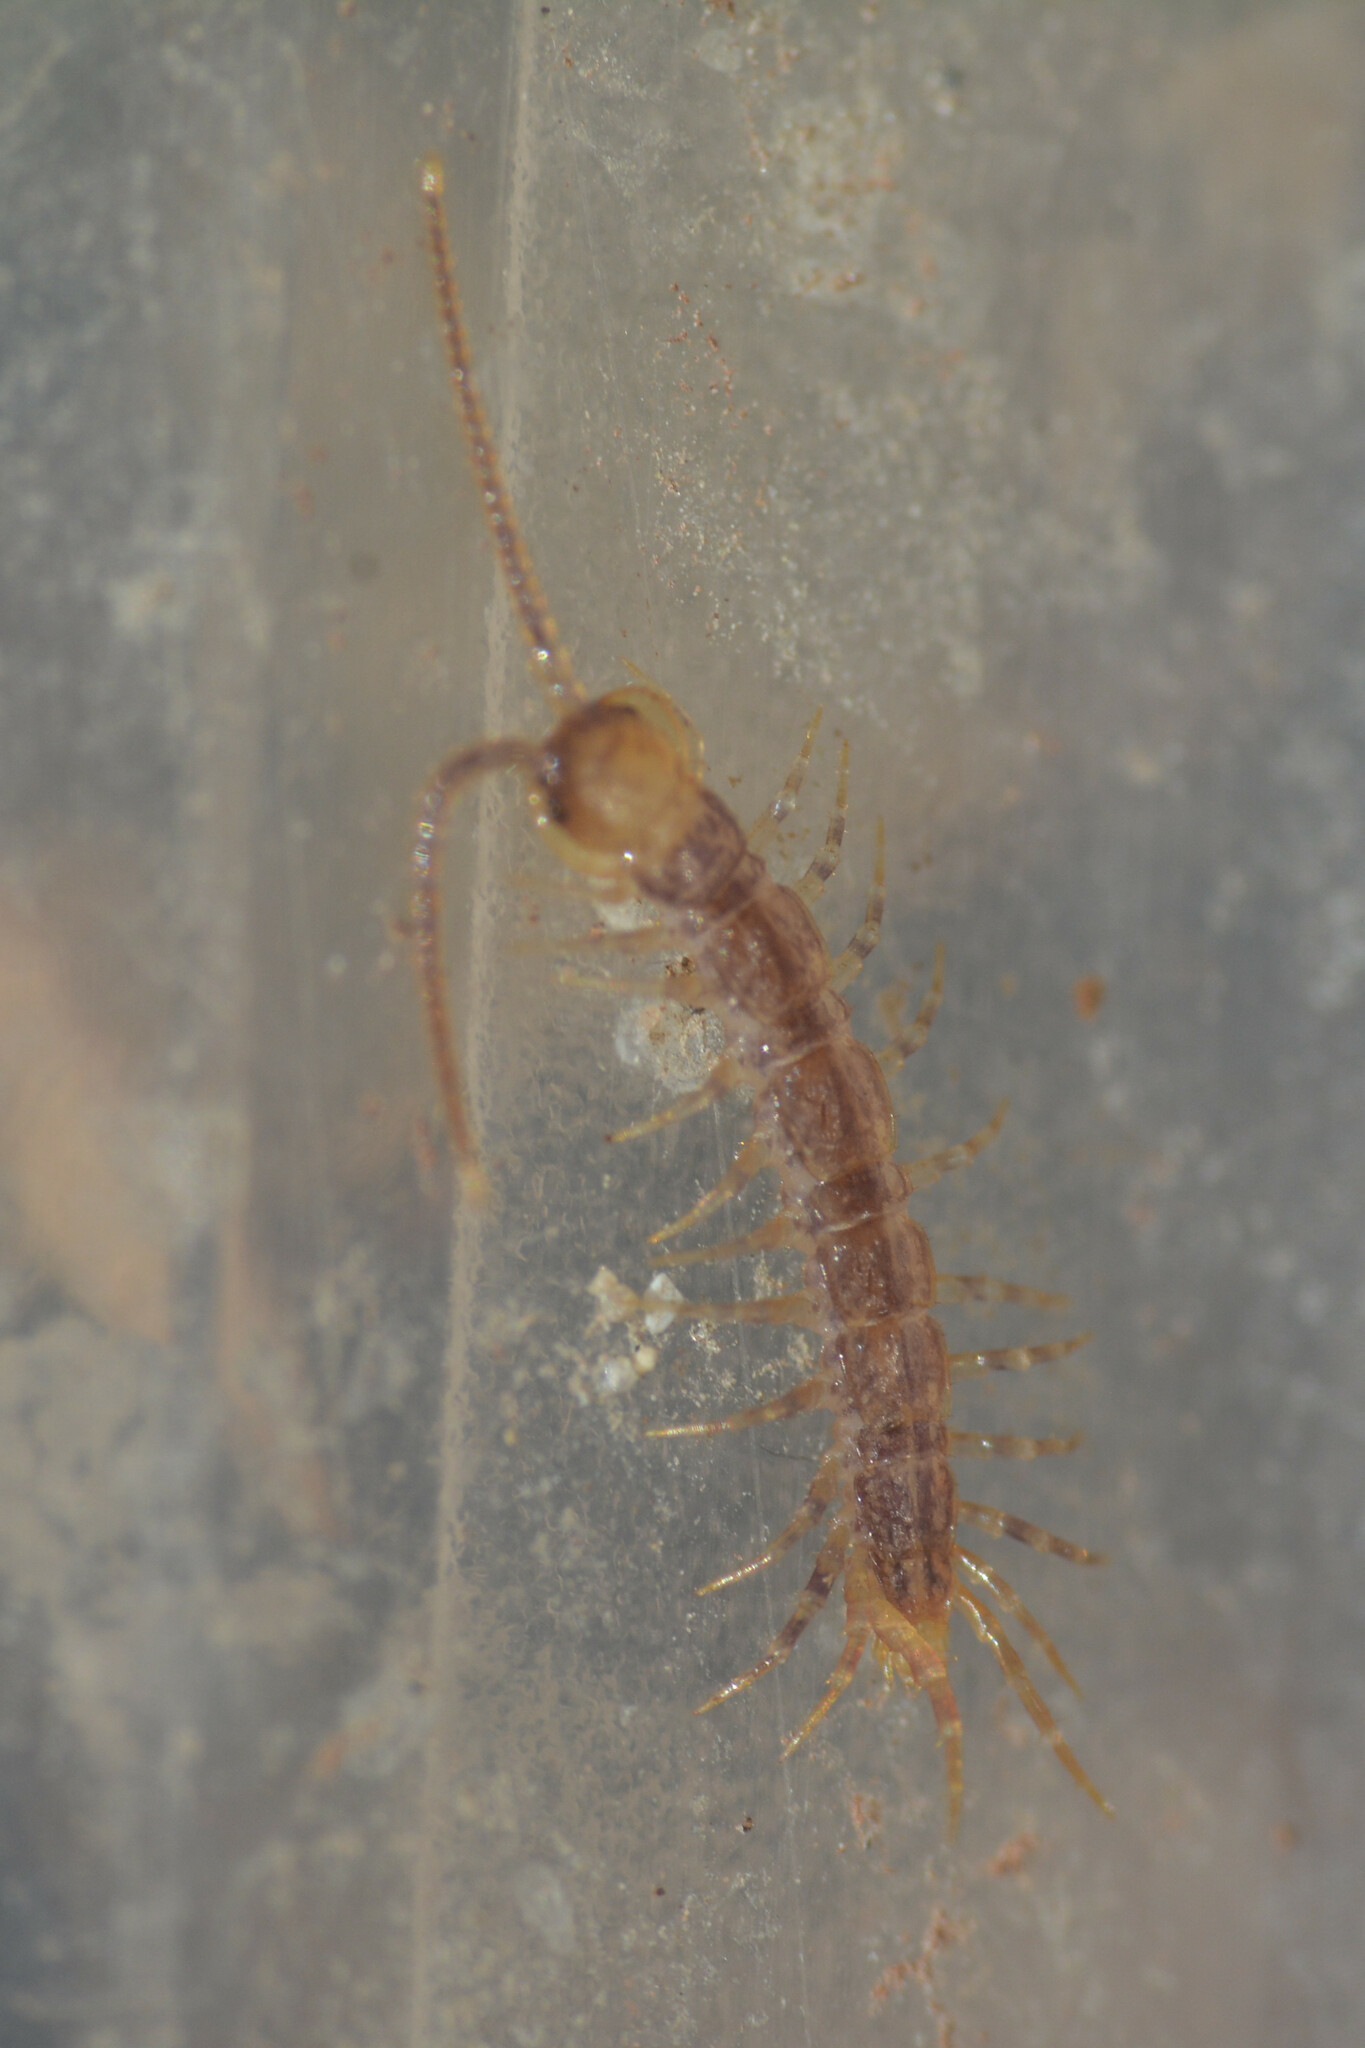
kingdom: Animalia
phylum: Arthropoda
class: Chilopoda
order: Lithobiomorpha
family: Lithobiidae
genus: Lithobius
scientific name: Lithobius variegatus
